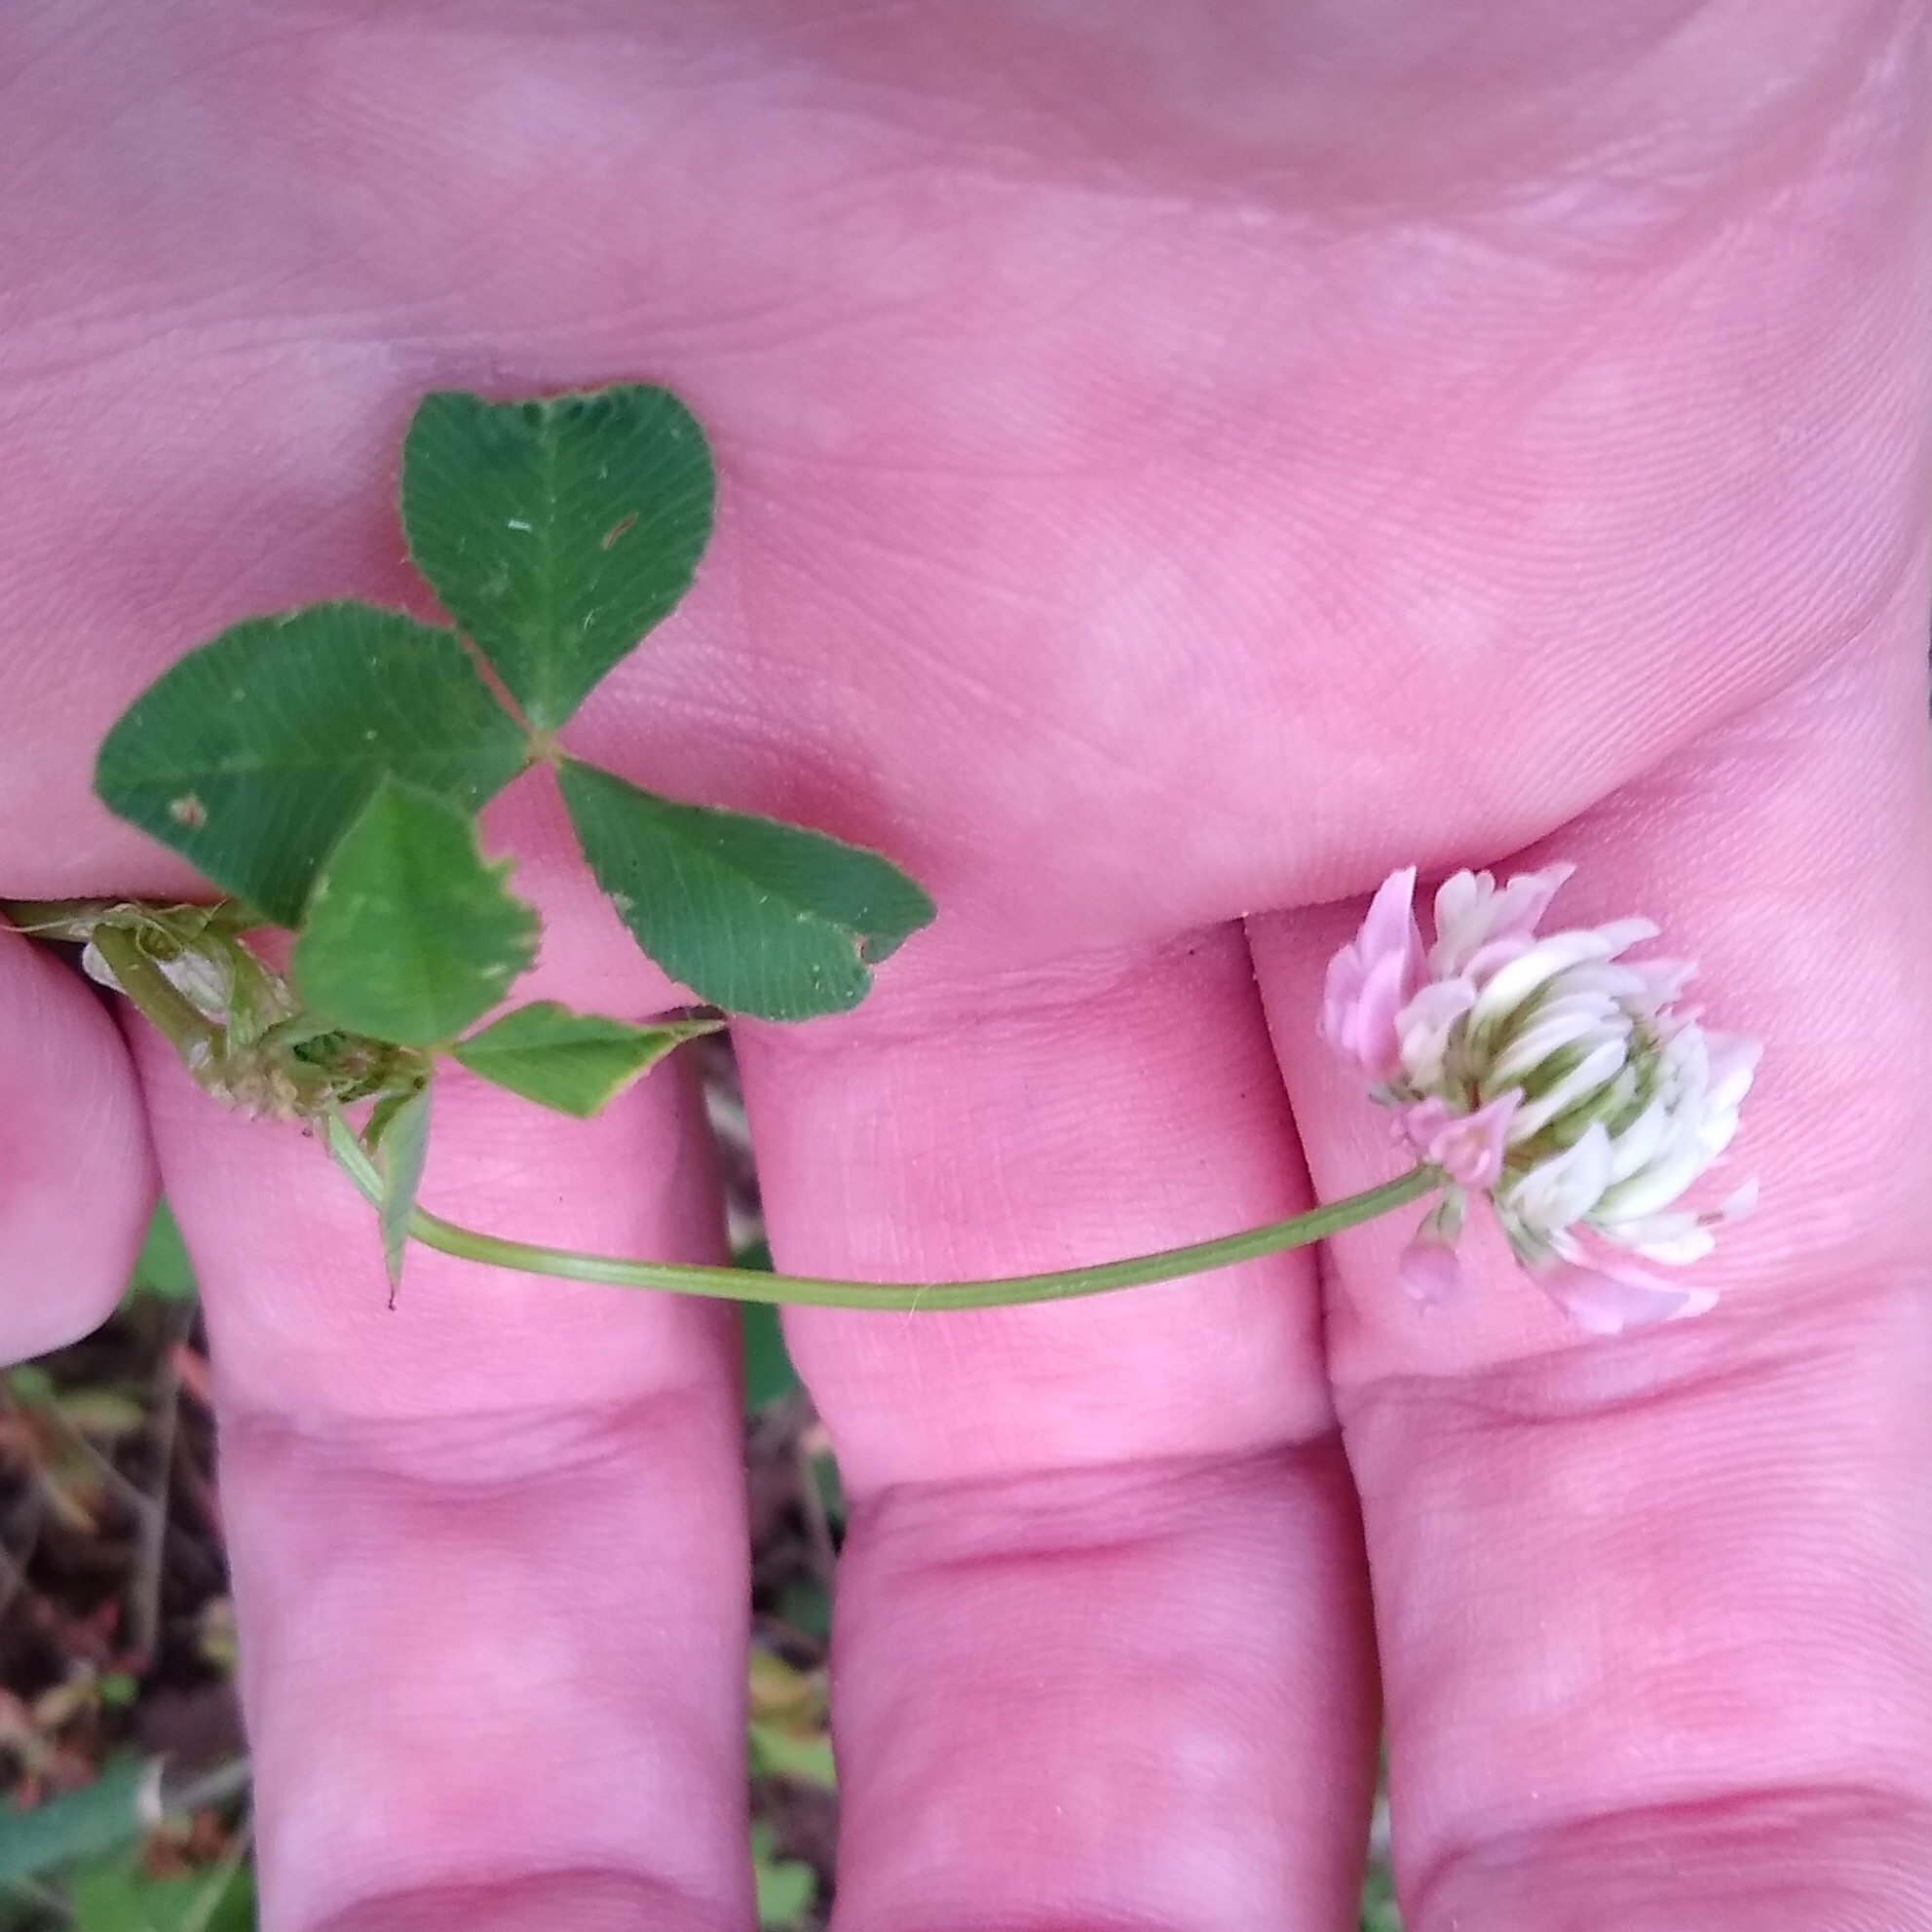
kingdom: Plantae
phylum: Tracheophyta
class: Magnoliopsida
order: Fabales
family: Fabaceae
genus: Trifolium
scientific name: Trifolium hybridum
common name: Alsike clover
